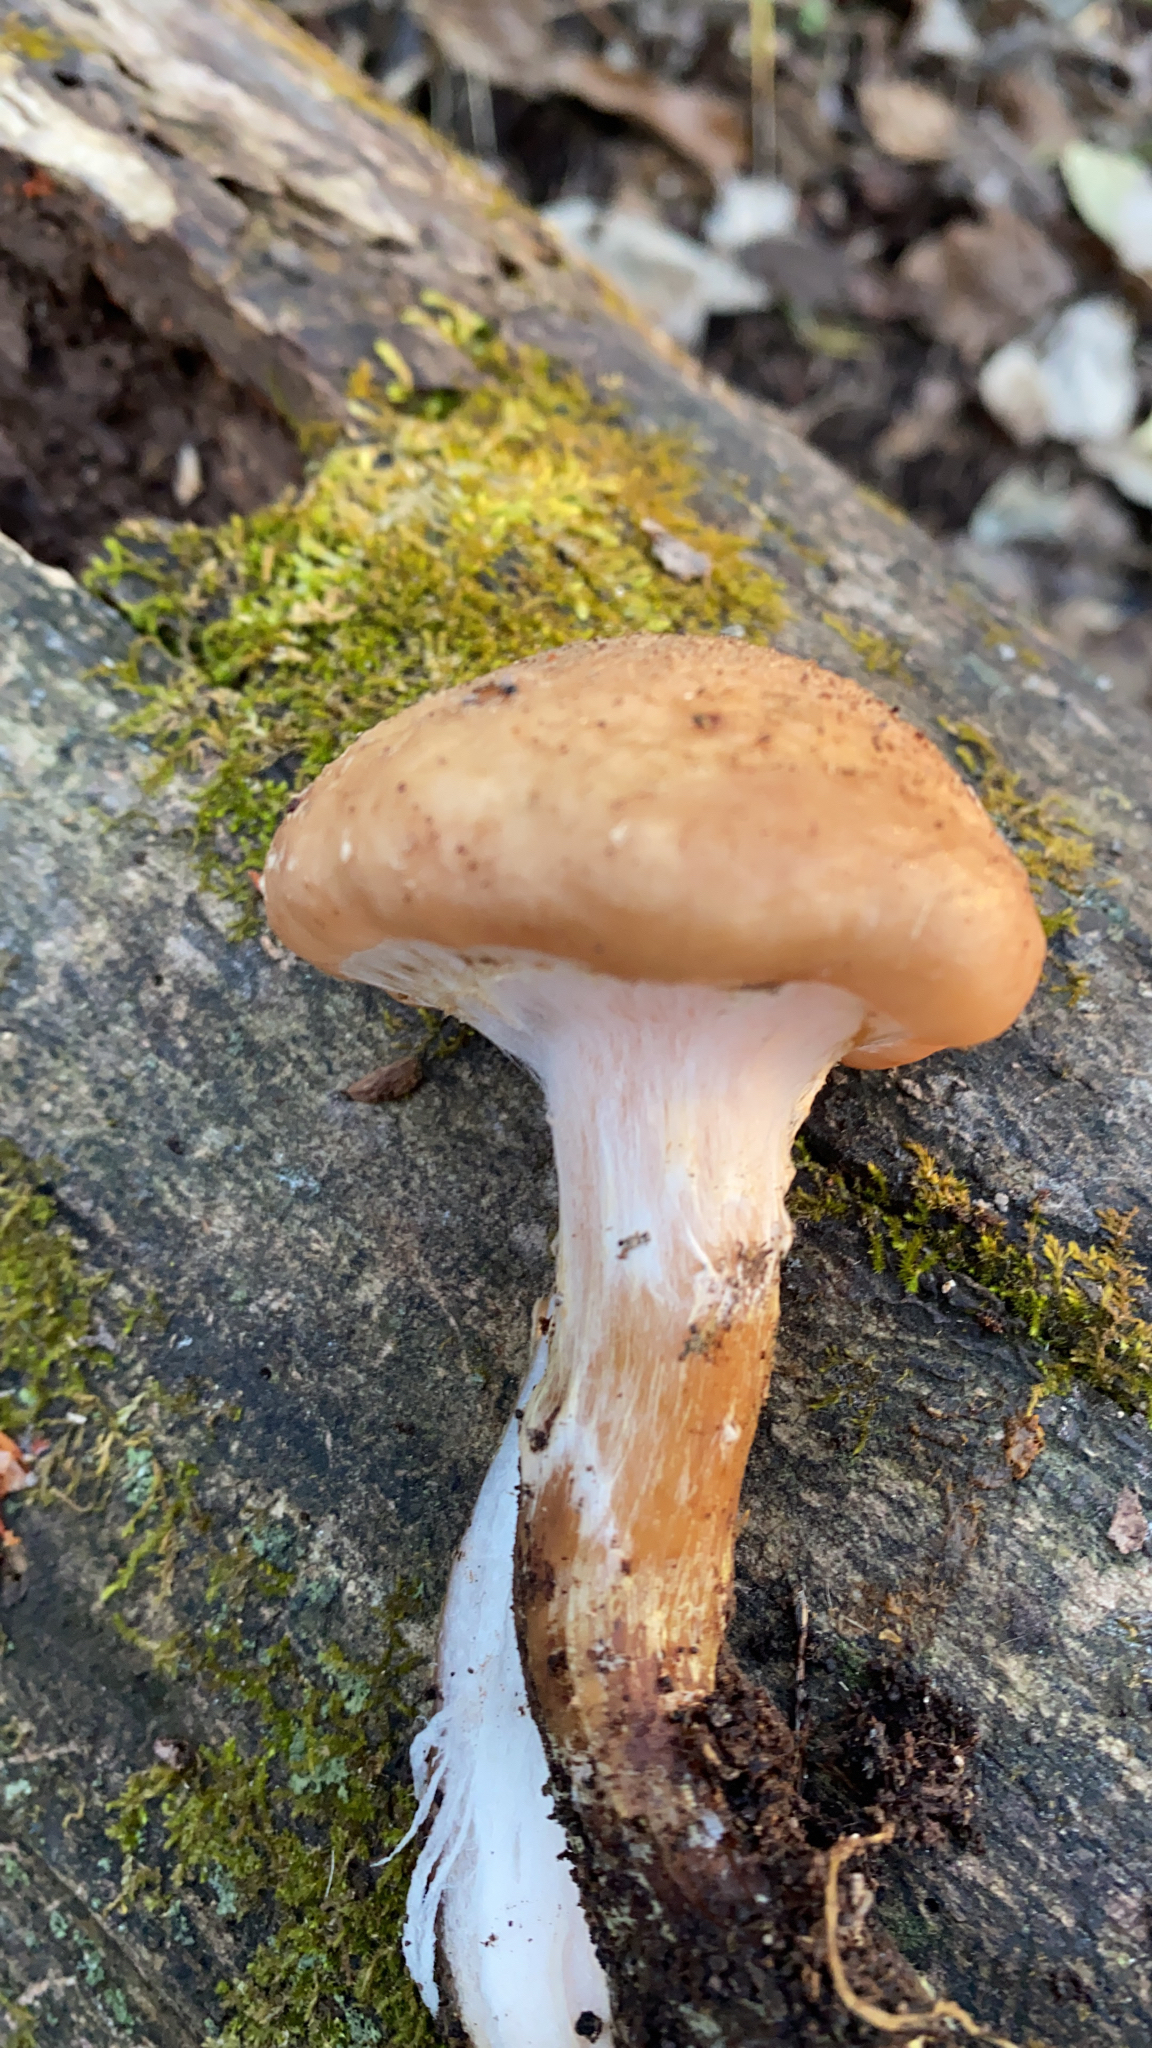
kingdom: Fungi
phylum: Basidiomycota
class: Agaricomycetes
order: Agaricales
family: Physalacriaceae
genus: Armillaria
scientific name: Armillaria gallica
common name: Bulbous honey fungus
